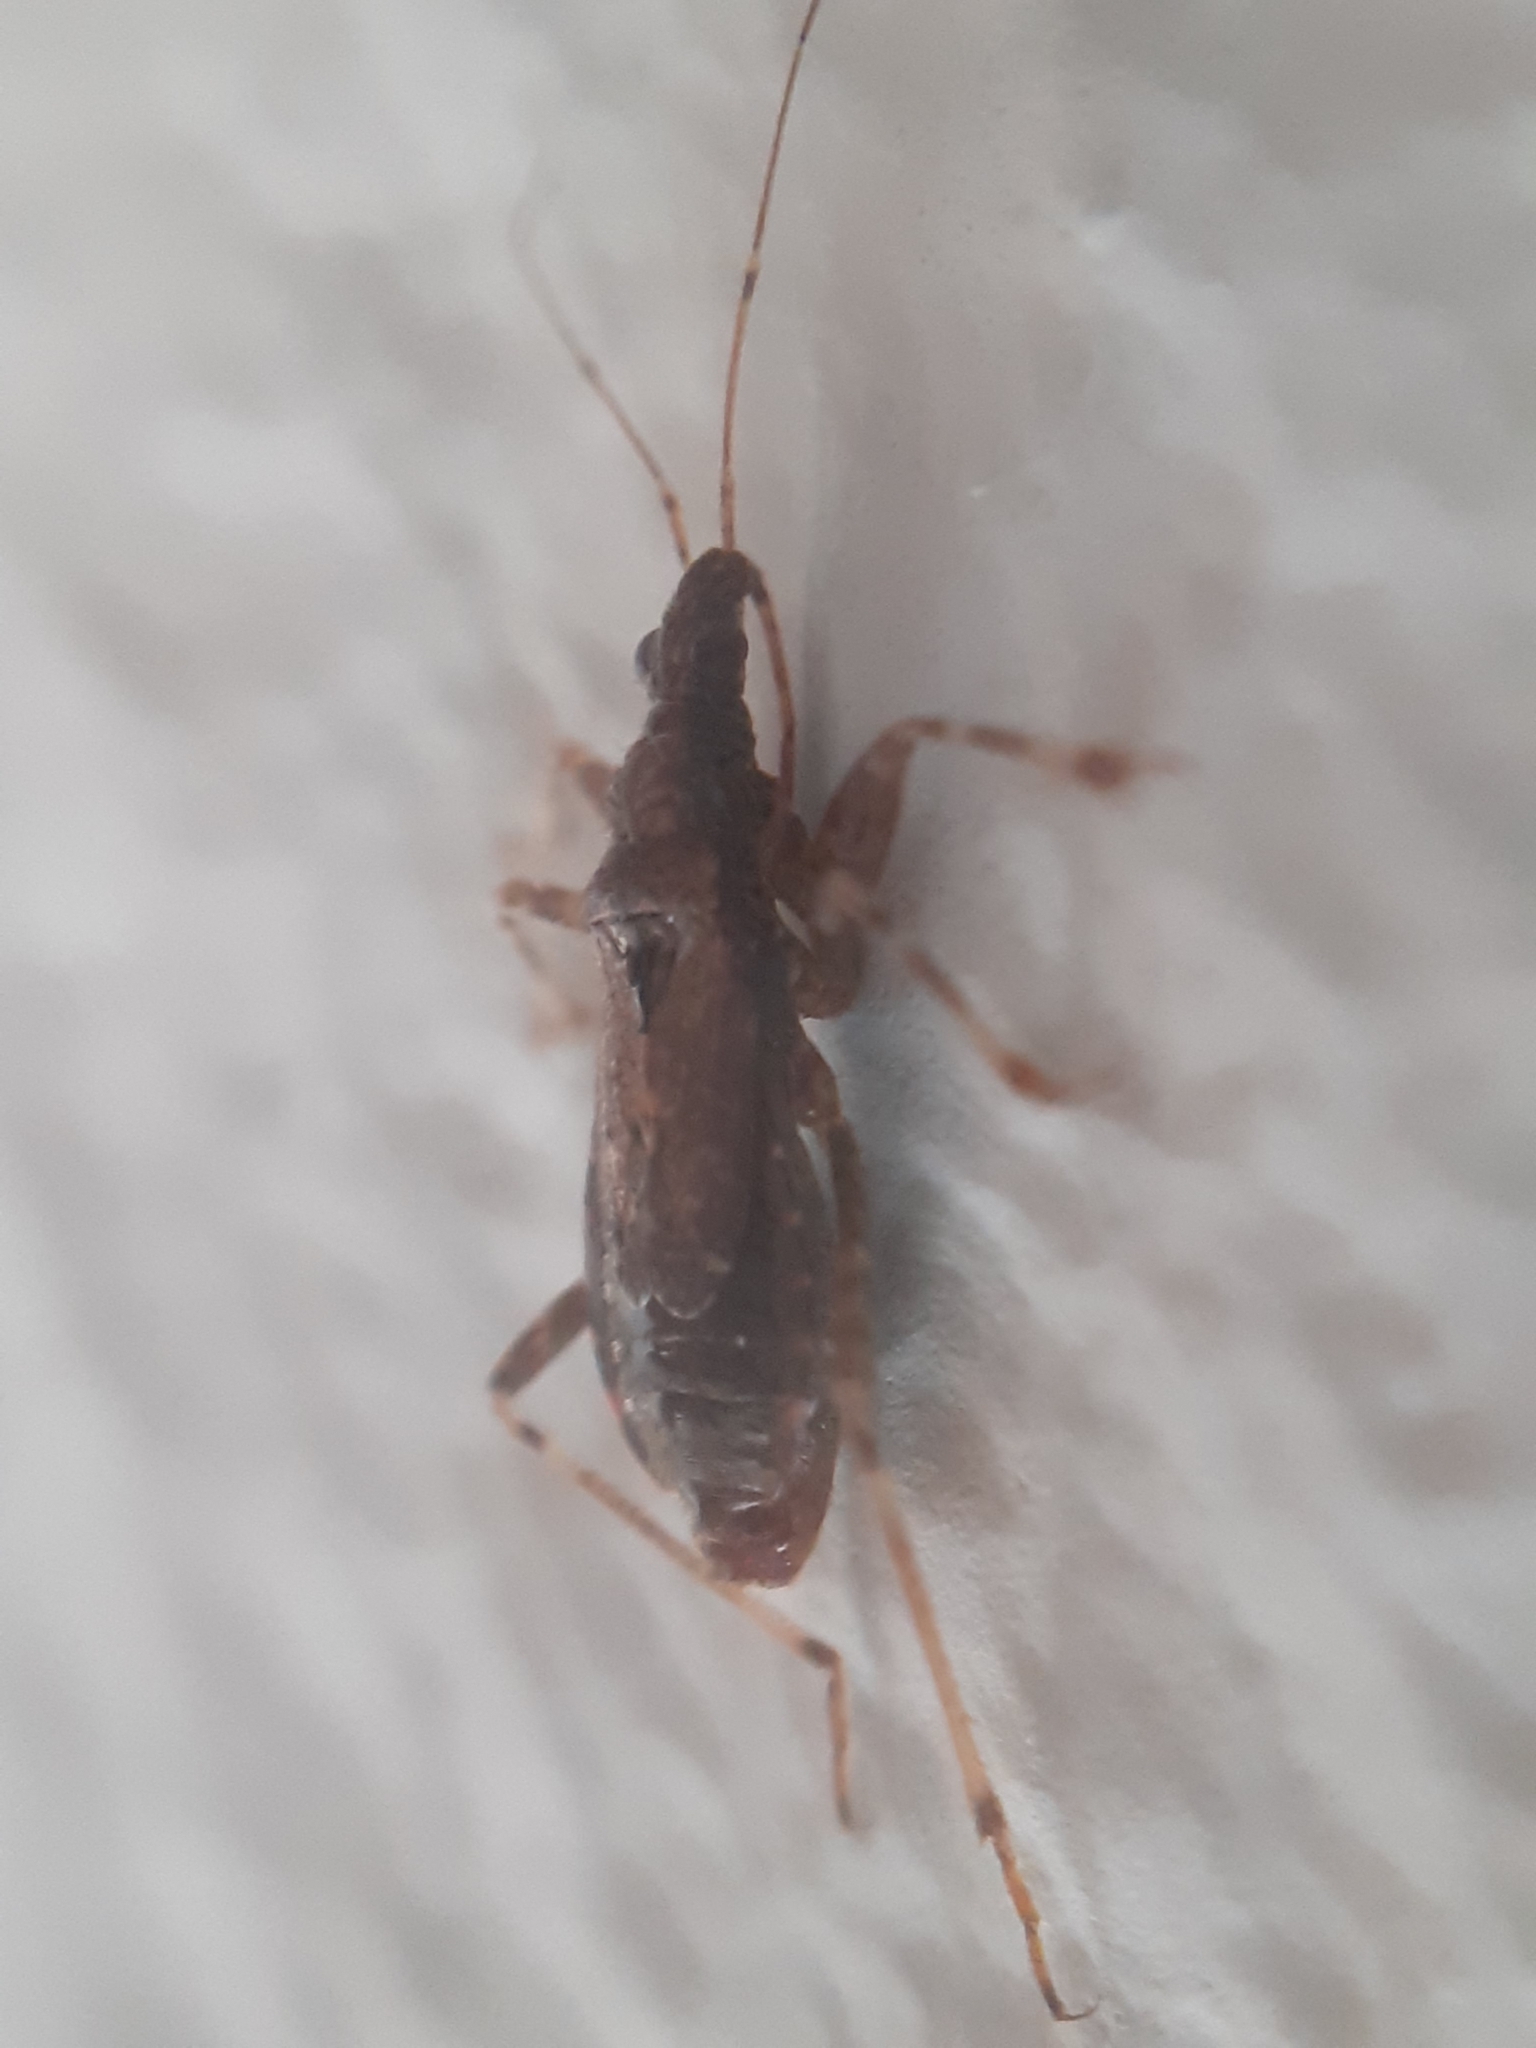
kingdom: Animalia
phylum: Arthropoda
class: Insecta
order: Hemiptera
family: Nabidae
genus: Himacerus
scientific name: Himacerus mirmicoides
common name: Ant damsel bug
